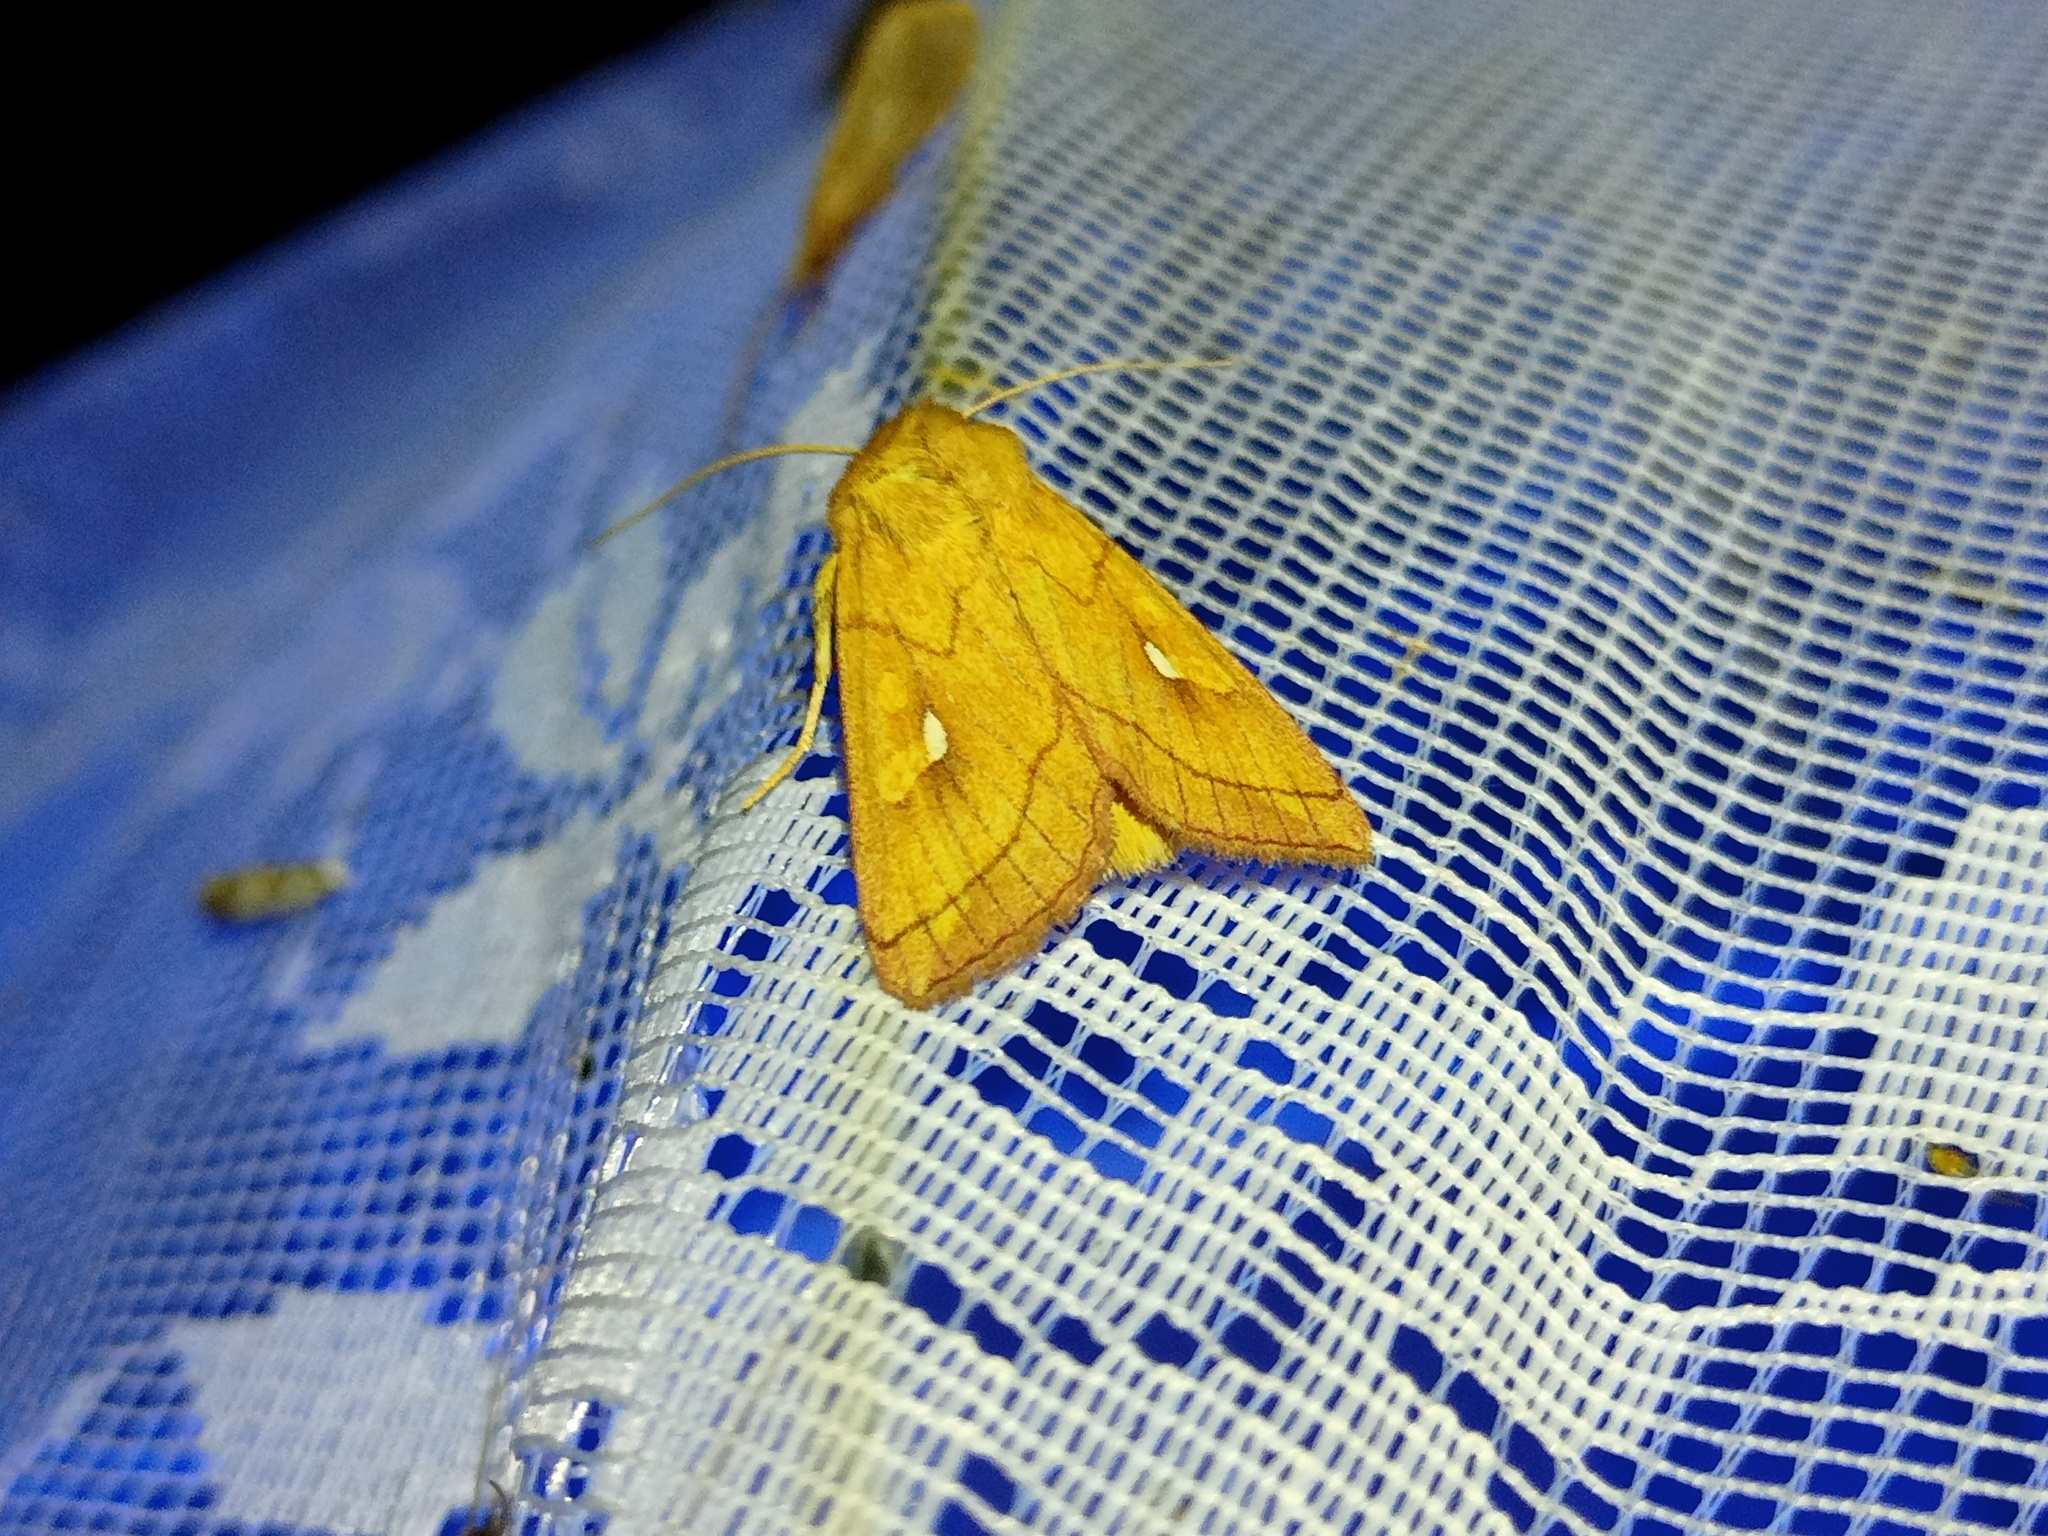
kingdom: Animalia
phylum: Arthropoda
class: Insecta
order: Lepidoptera
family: Noctuidae
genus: Mythimna
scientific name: Mythimna conigera
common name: Brown-line bright-eye
